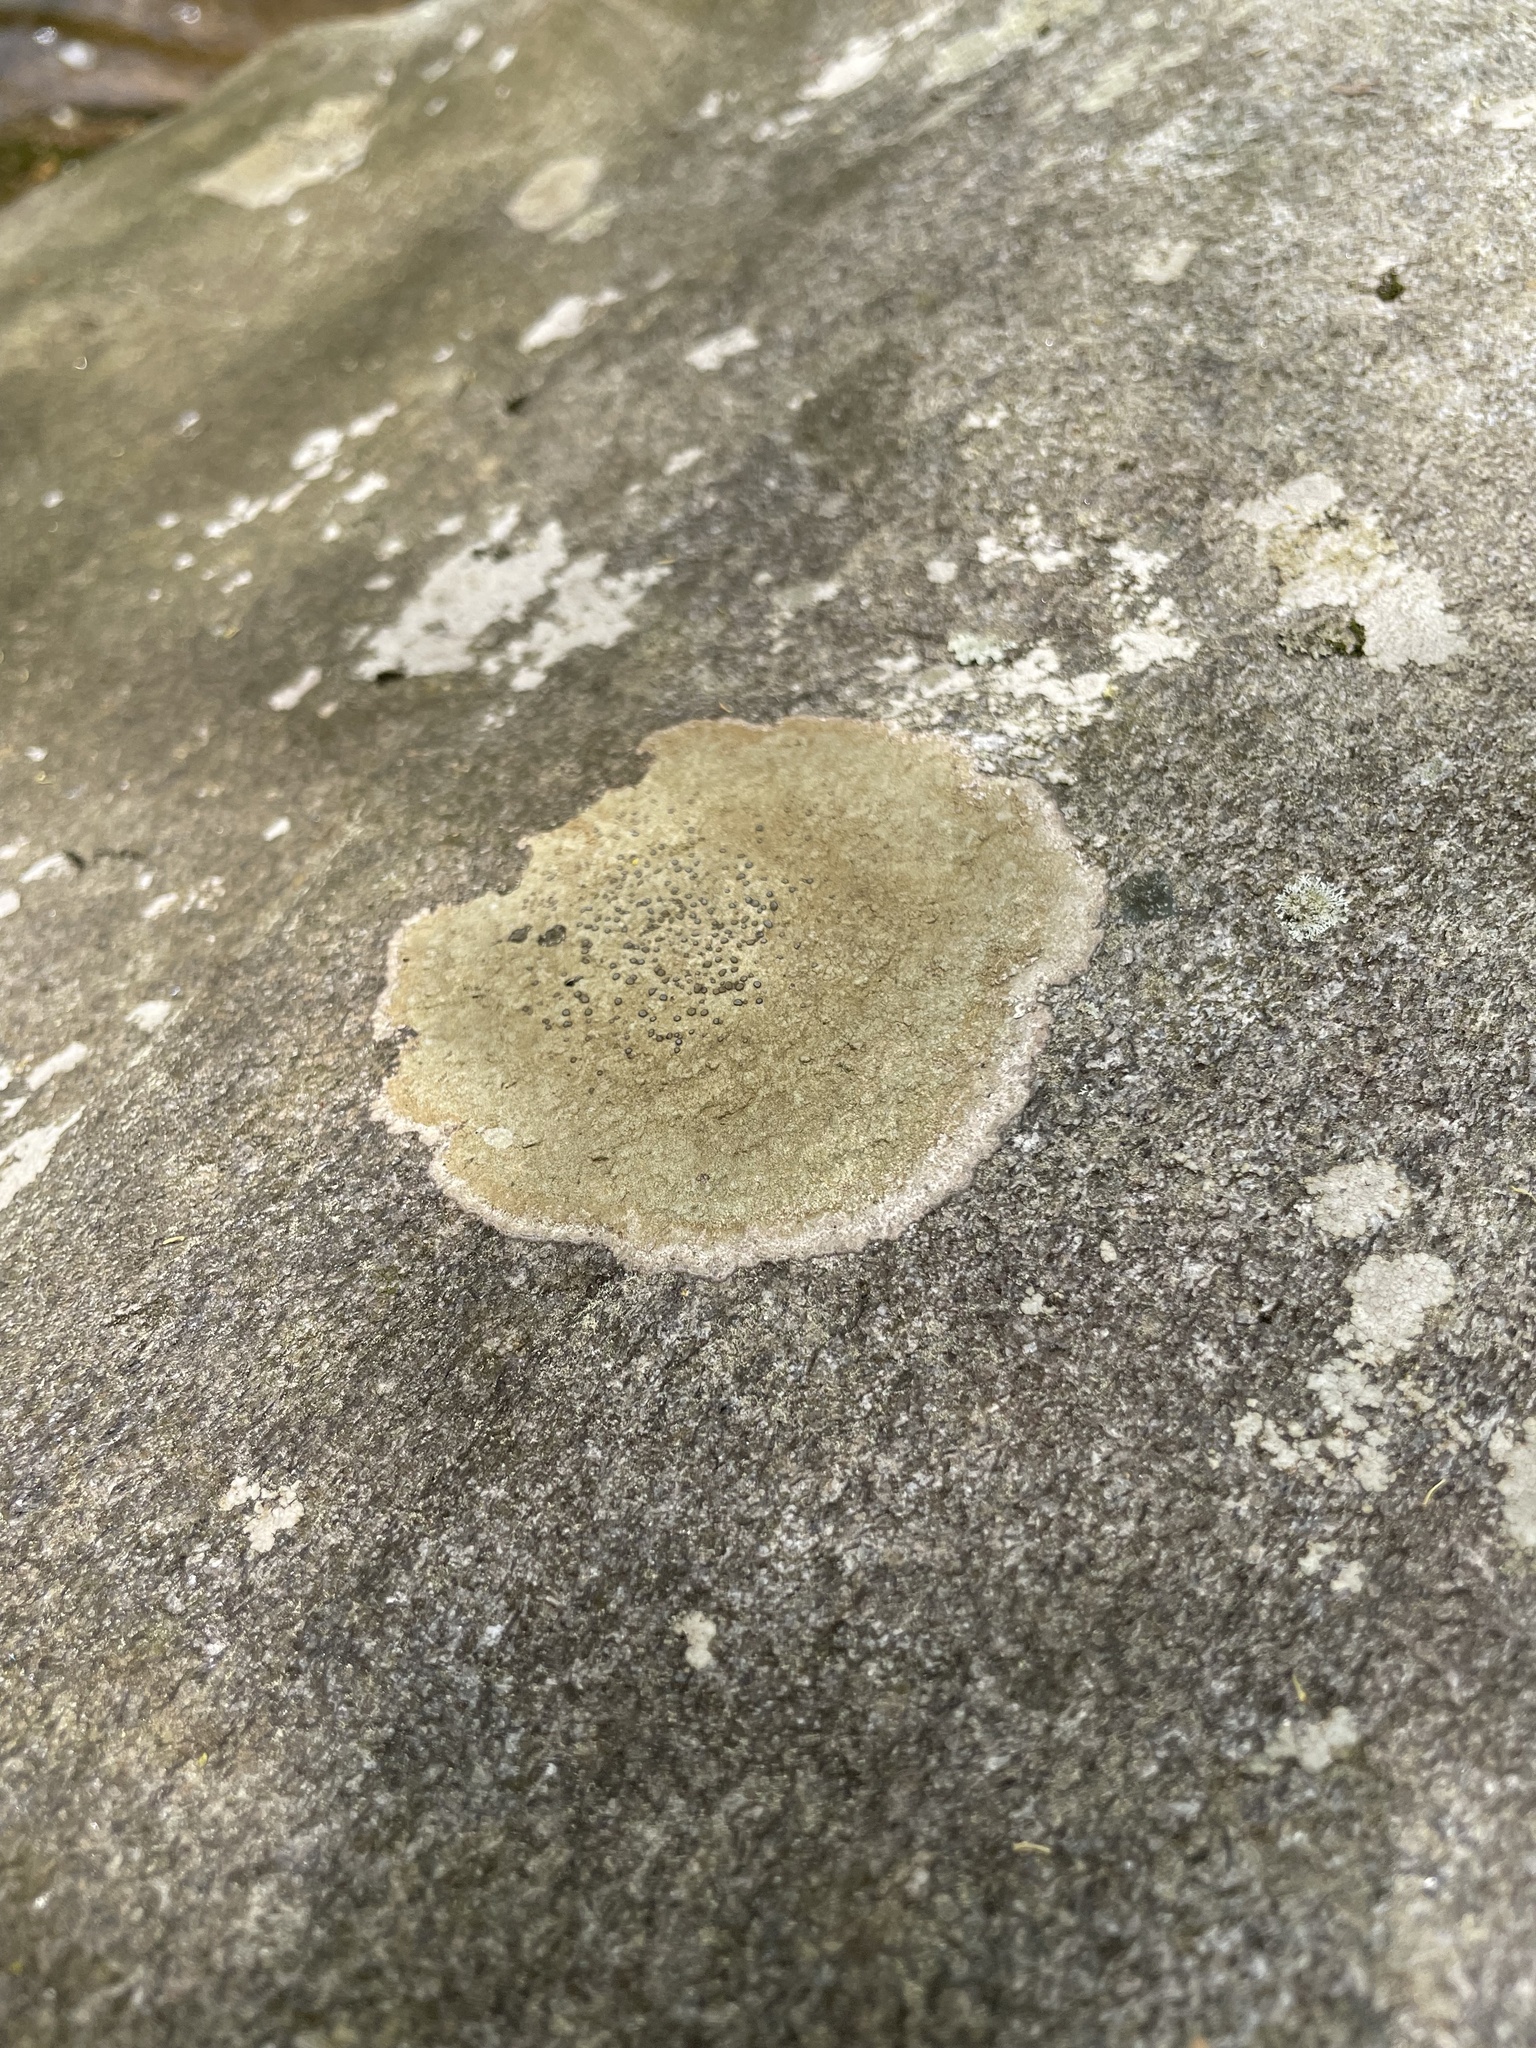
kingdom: Fungi
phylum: Ascomycota
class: Lecanoromycetes
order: Lecideales
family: Lecideaceae
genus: Porpidia
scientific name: Porpidia albocaerulescens
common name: Smokey-eyed boulder lichen
